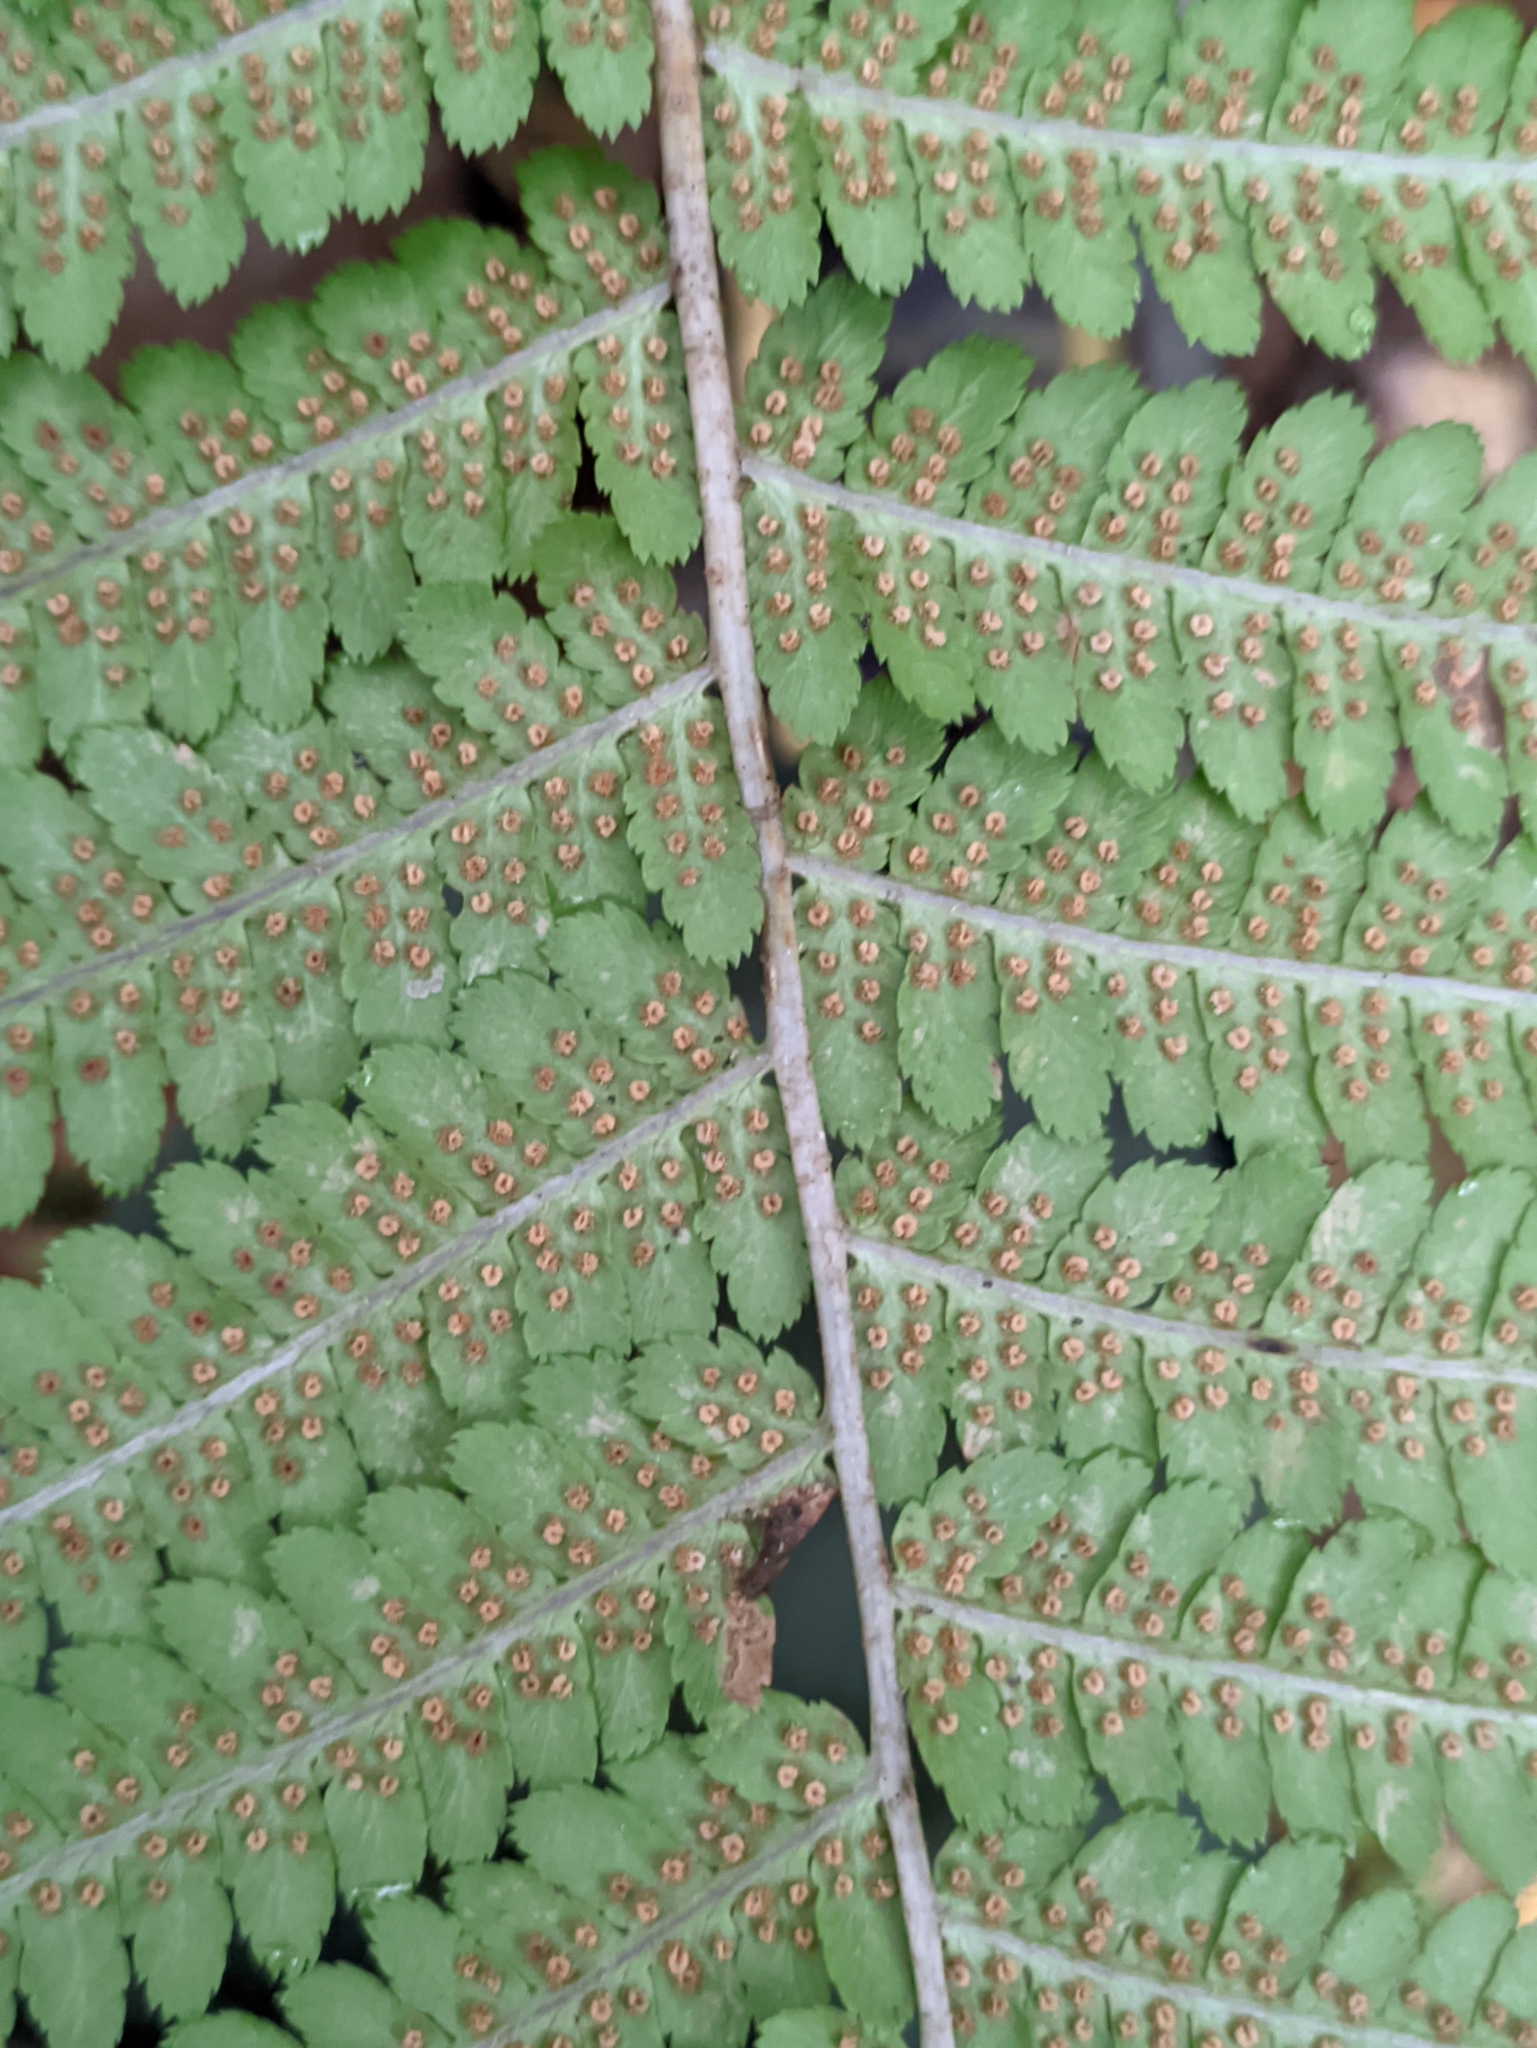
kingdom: Plantae
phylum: Tracheophyta
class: Polypodiopsida
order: Polypodiales
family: Dryopteridaceae
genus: Dryopteris
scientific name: Dryopteris filix-mas
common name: Male fern
